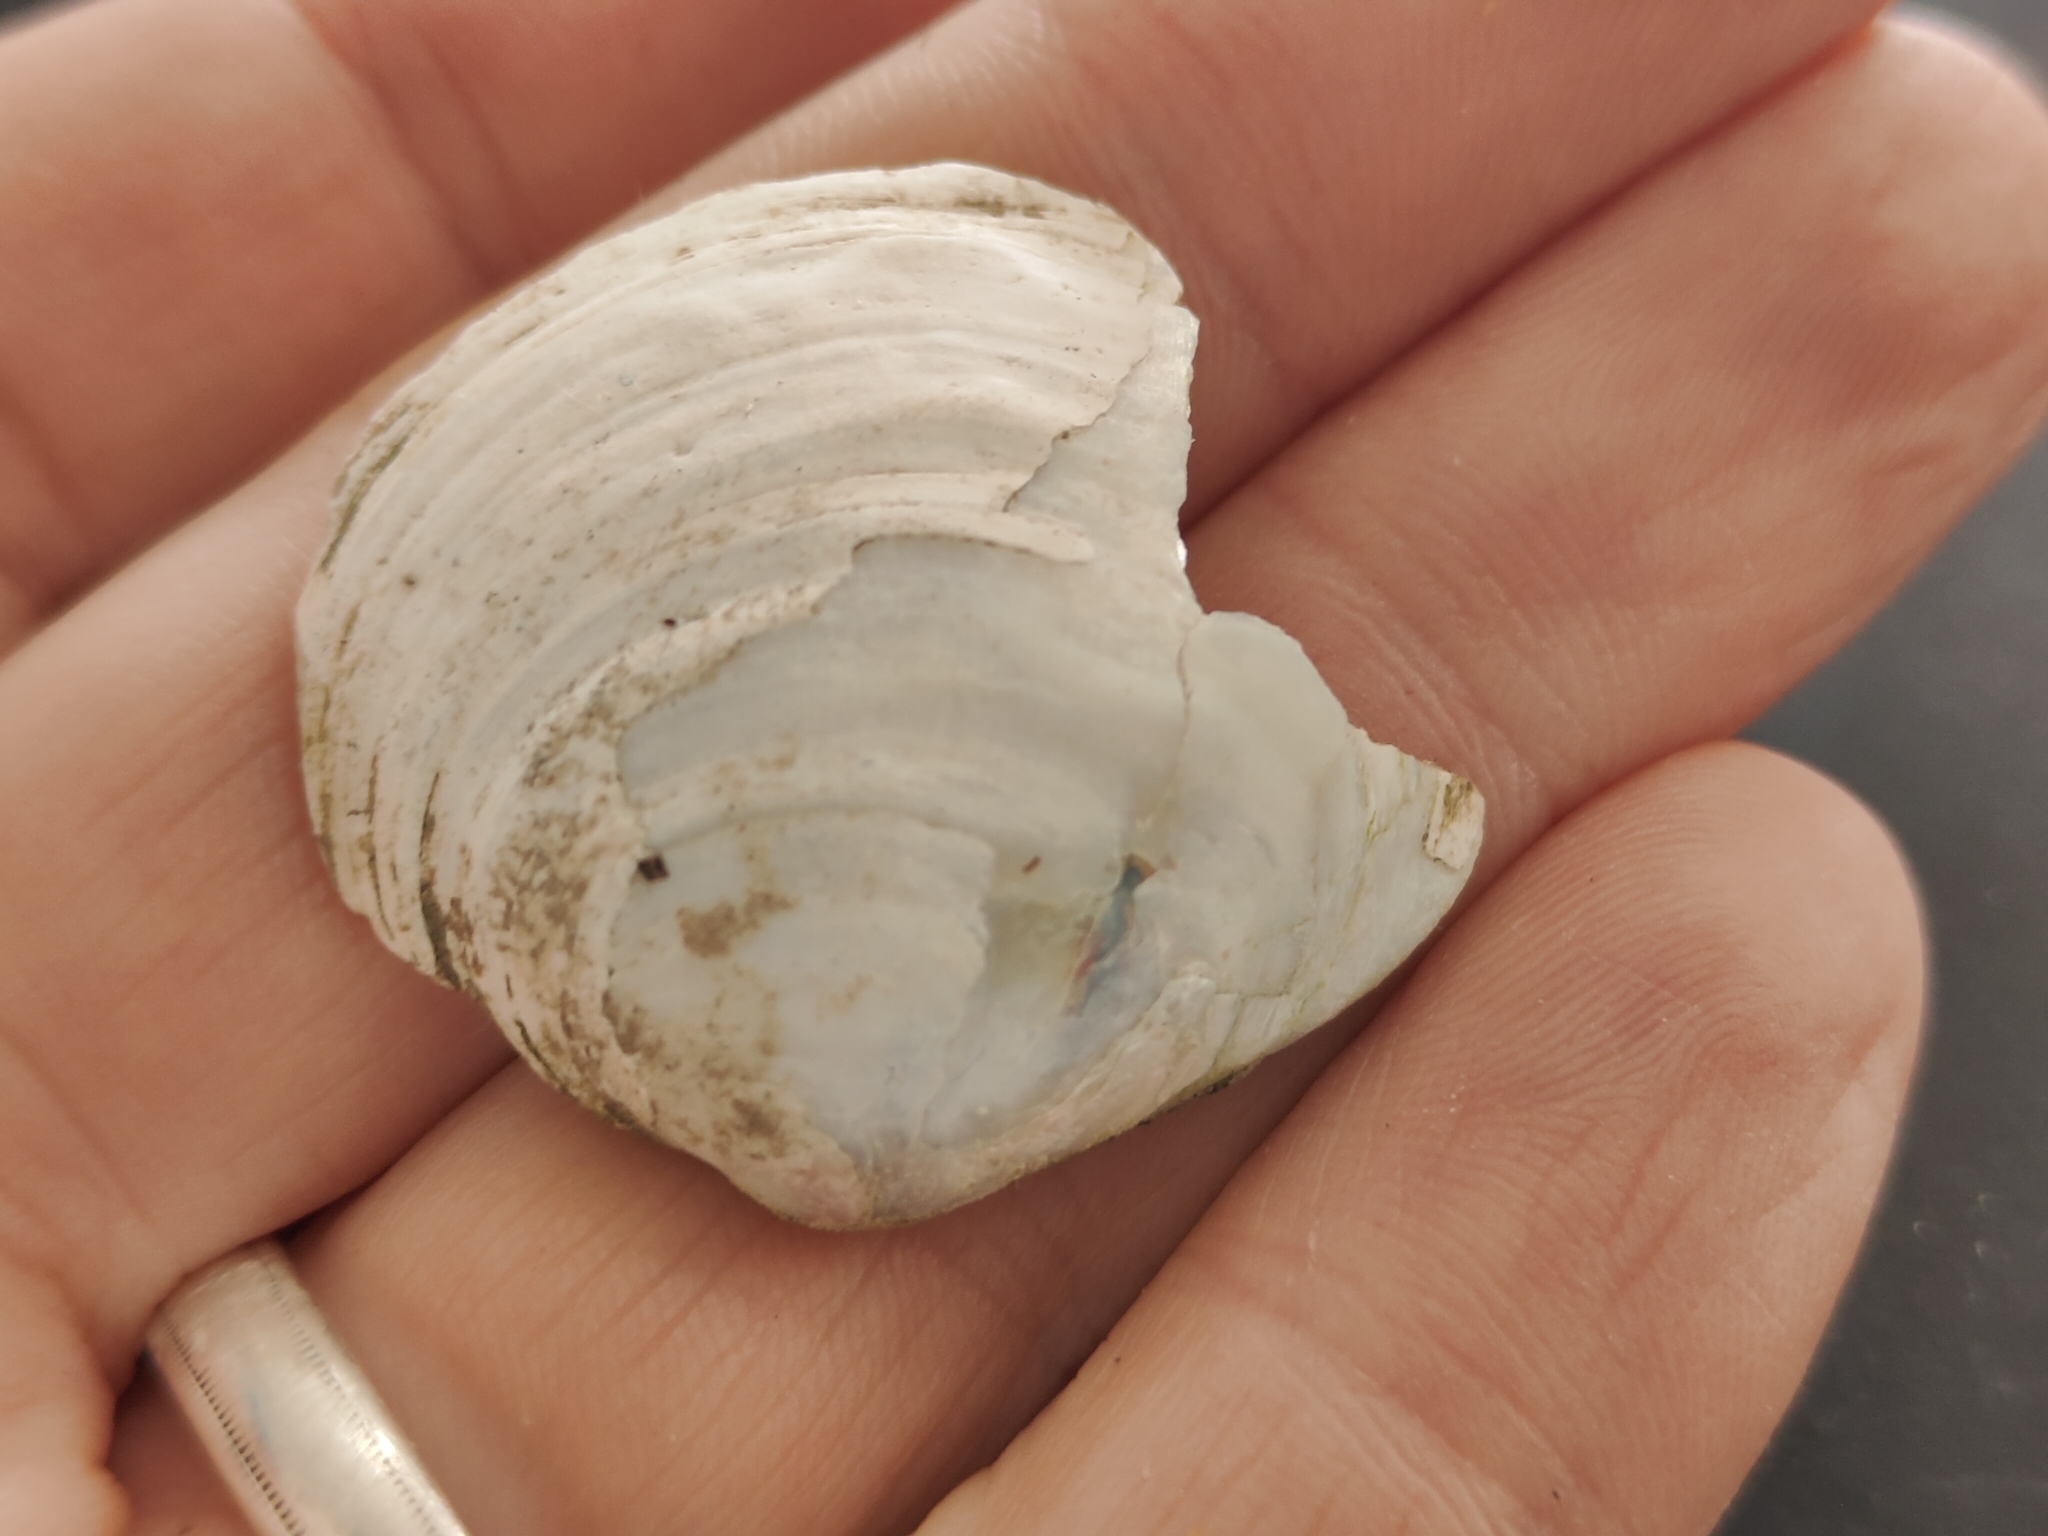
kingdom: Animalia
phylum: Mollusca
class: Bivalvia
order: Unionida
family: Unionidae
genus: Cyclonaias
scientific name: Cyclonaias pustulosa
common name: Pimpleback
